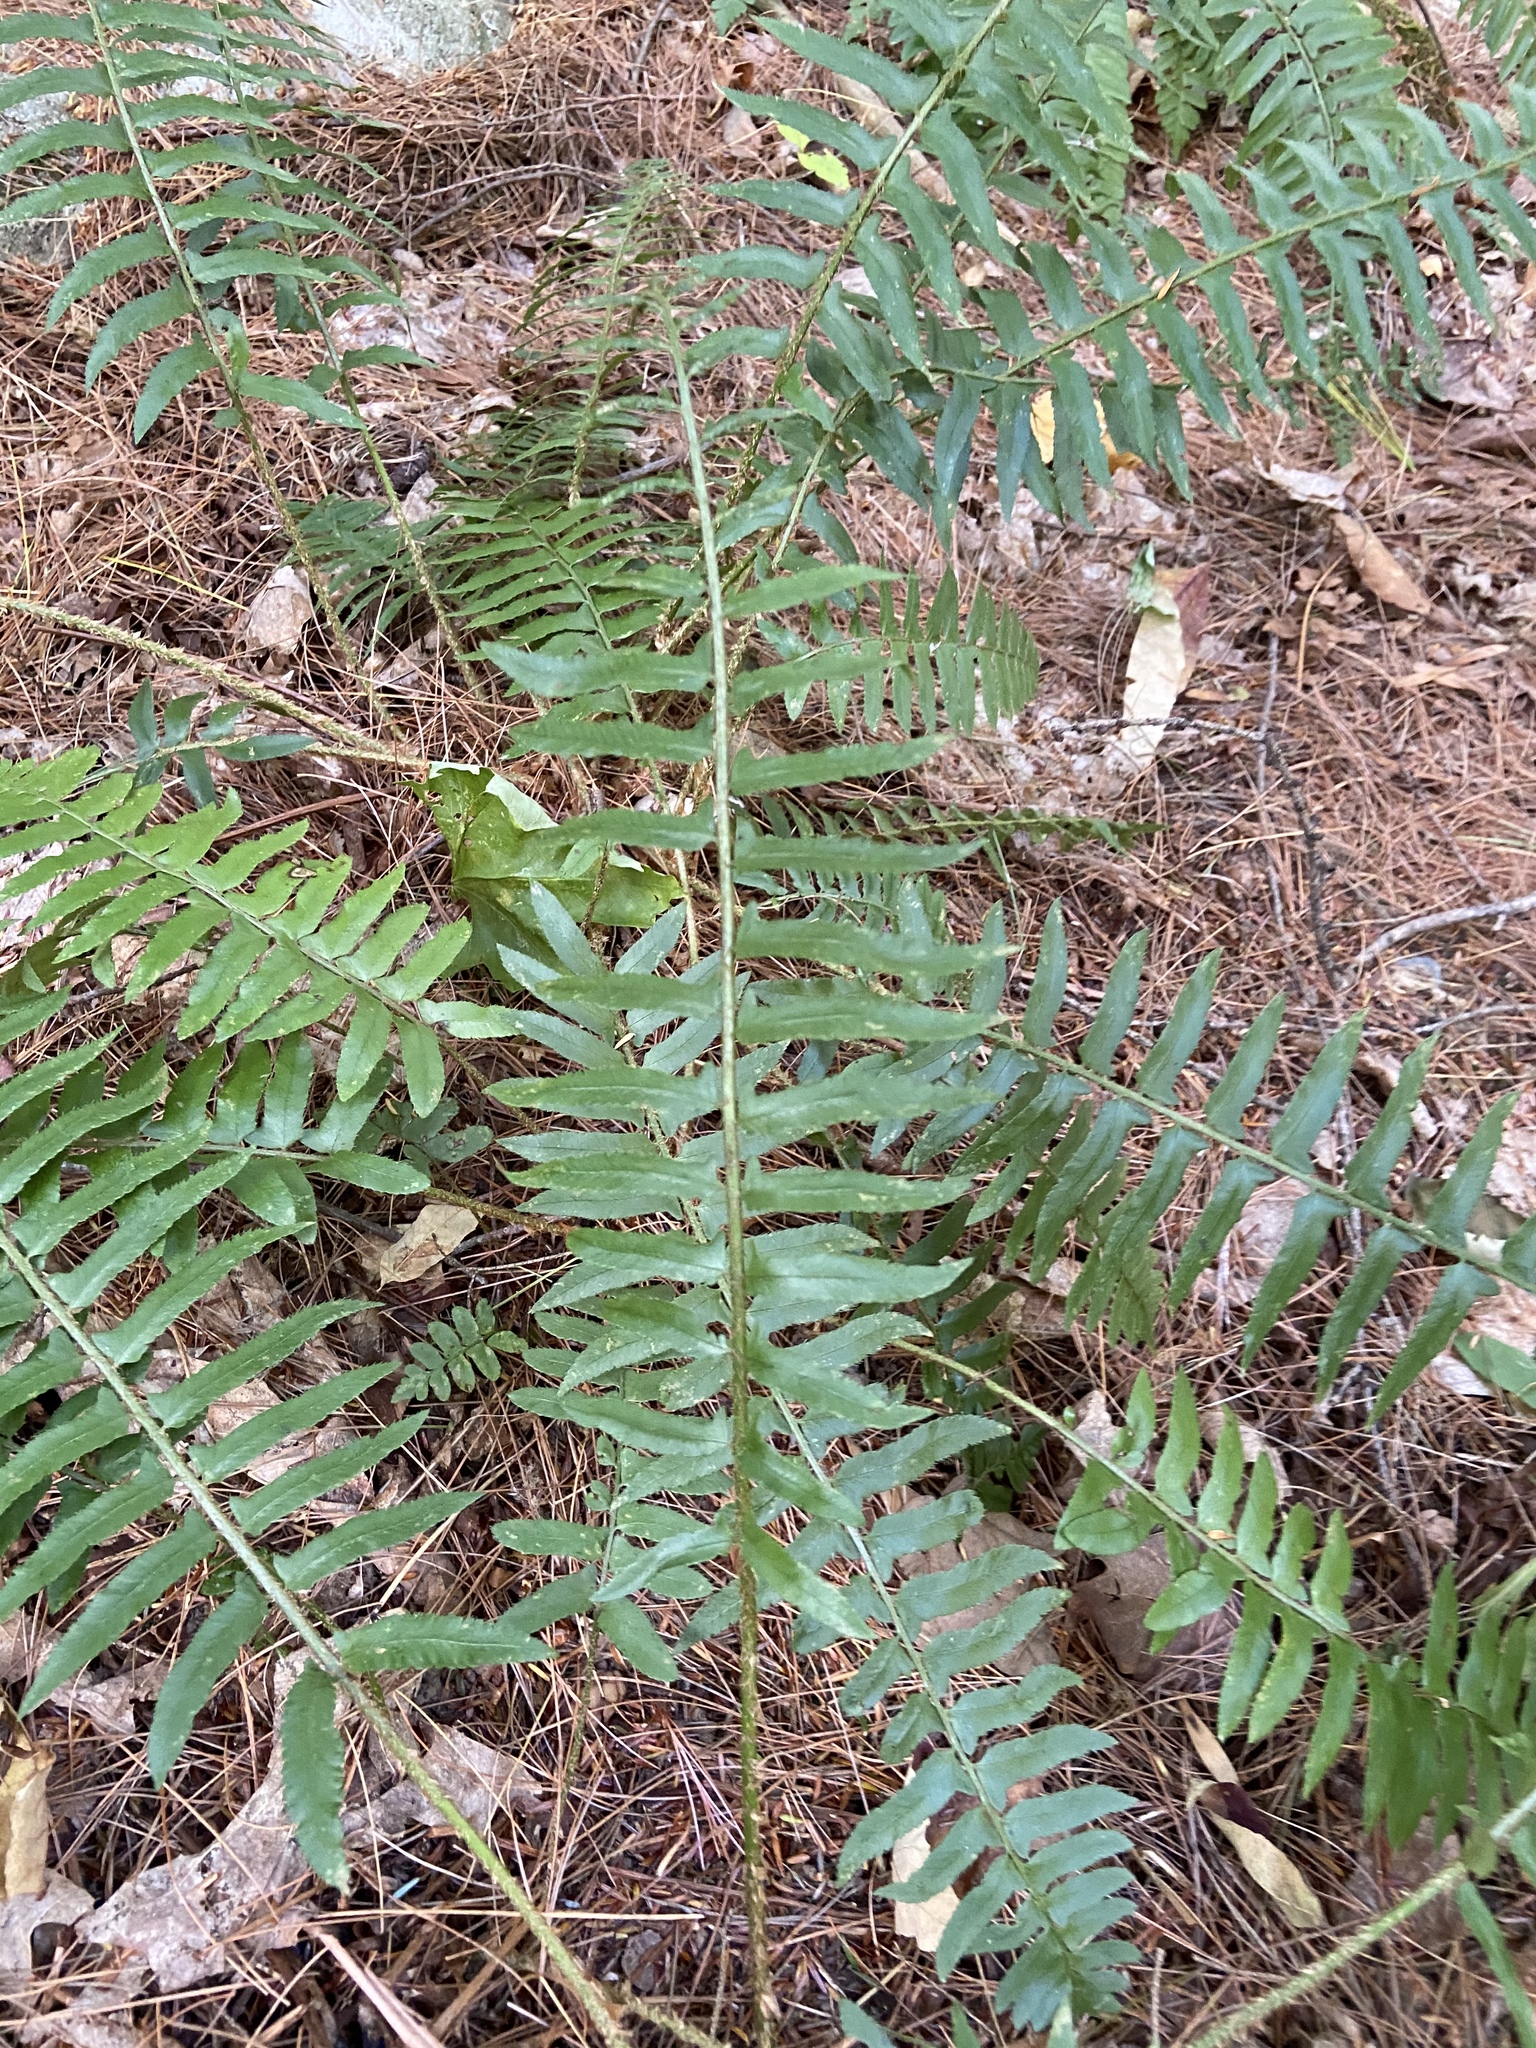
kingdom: Plantae
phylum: Tracheophyta
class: Polypodiopsida
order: Polypodiales
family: Dryopteridaceae
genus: Polystichum
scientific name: Polystichum acrostichoides
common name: Christmas fern
